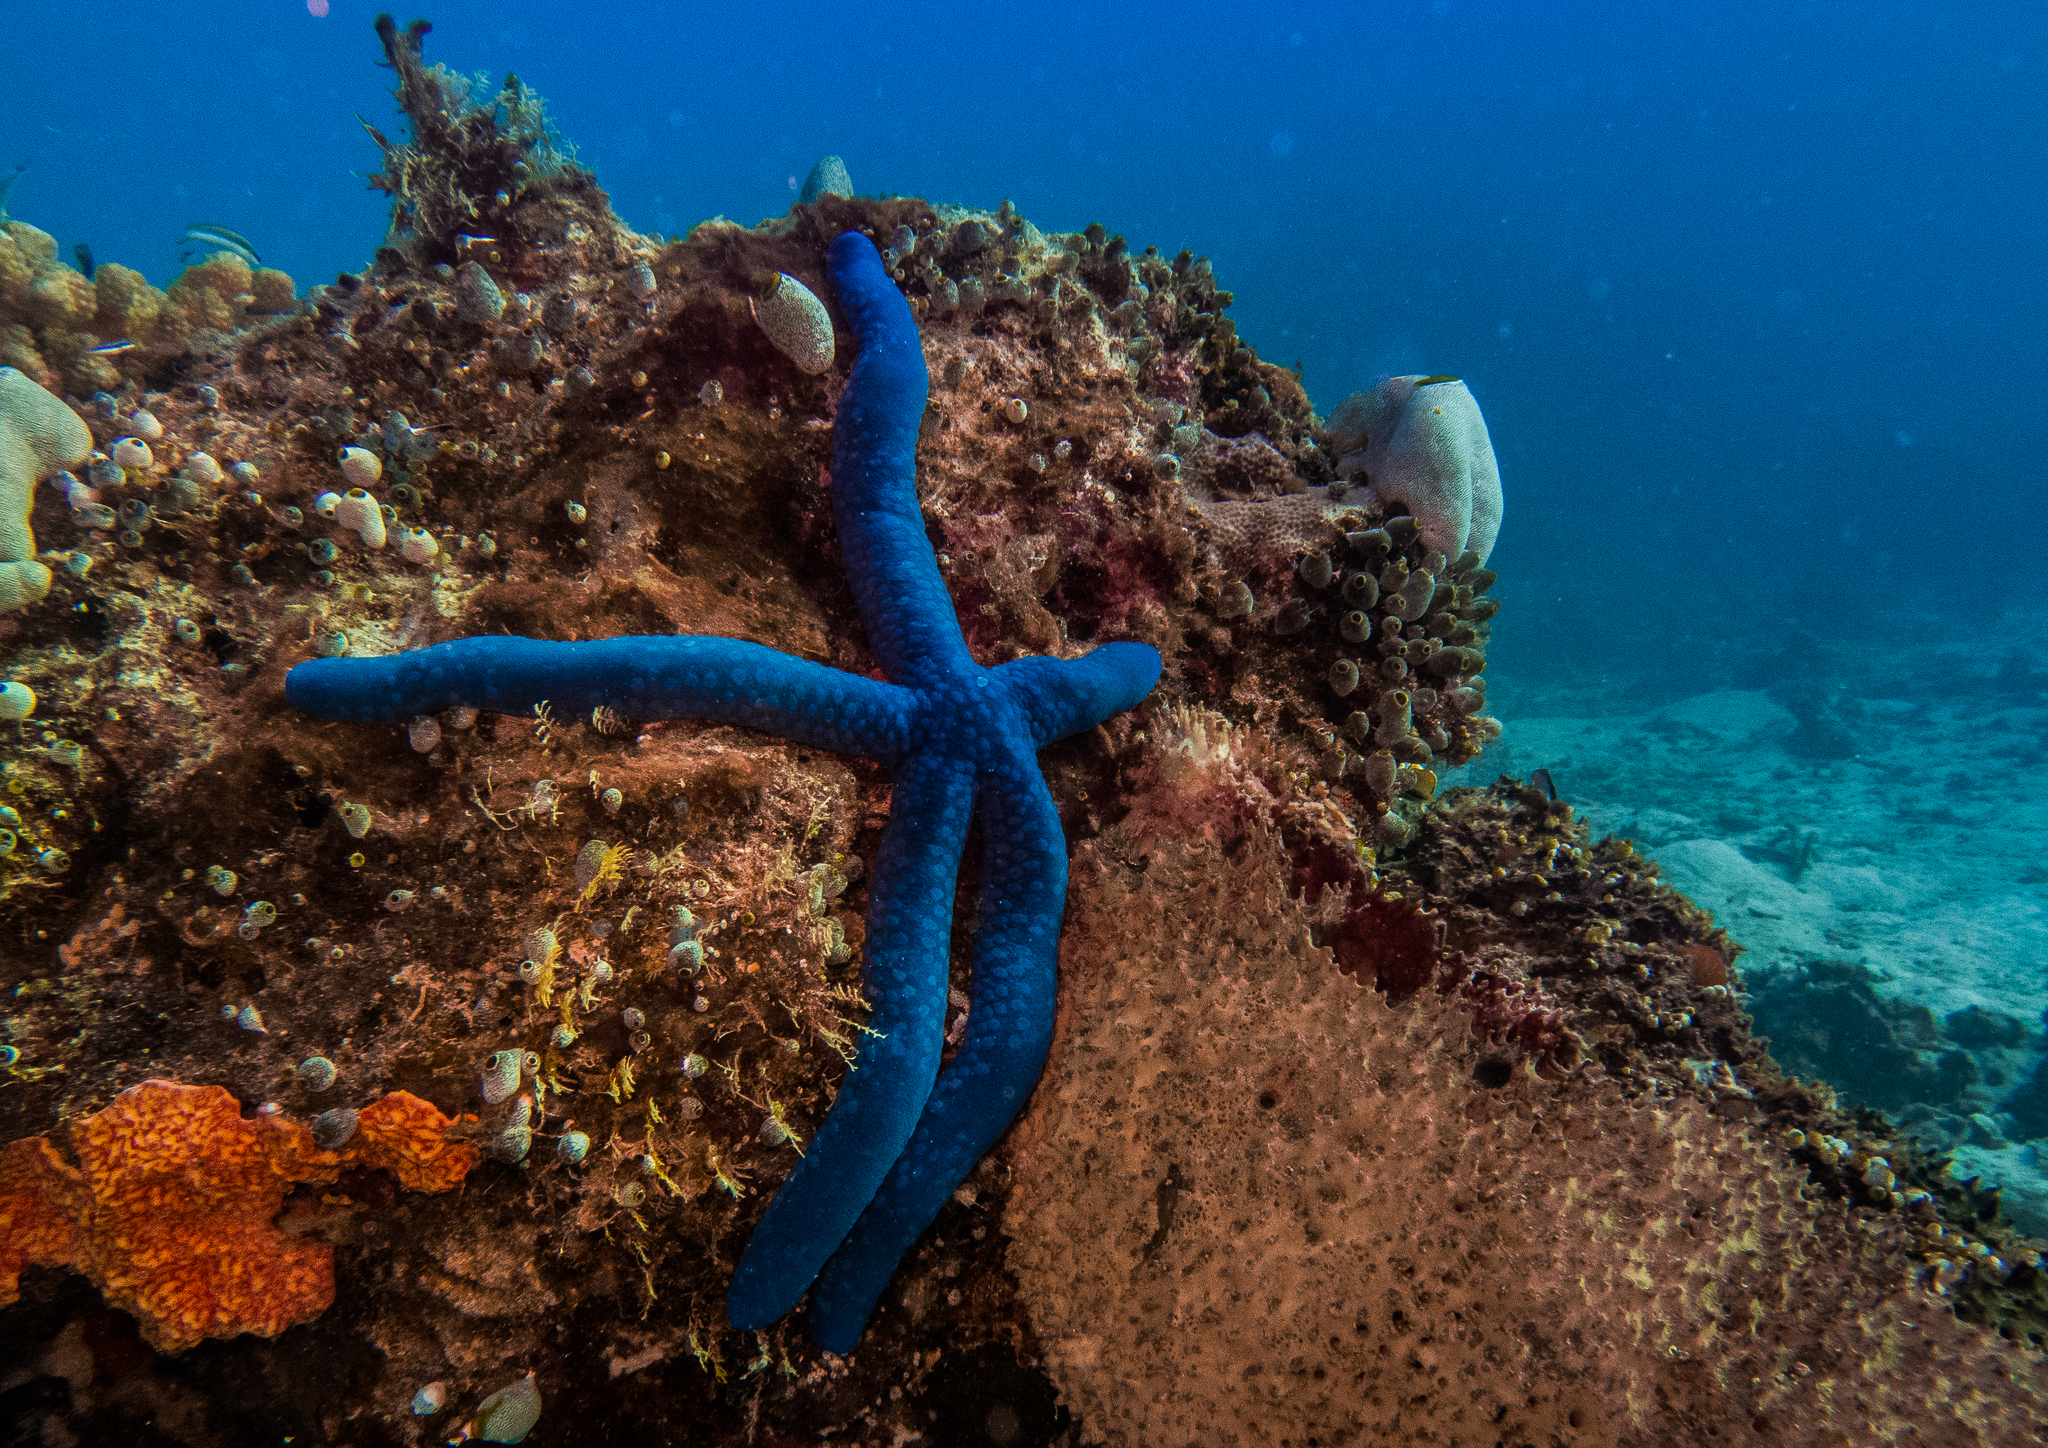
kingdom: Animalia
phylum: Echinodermata
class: Asteroidea
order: Valvatida
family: Ophidiasteridae
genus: Linckia
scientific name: Linckia laevigata
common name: Azure sea star
